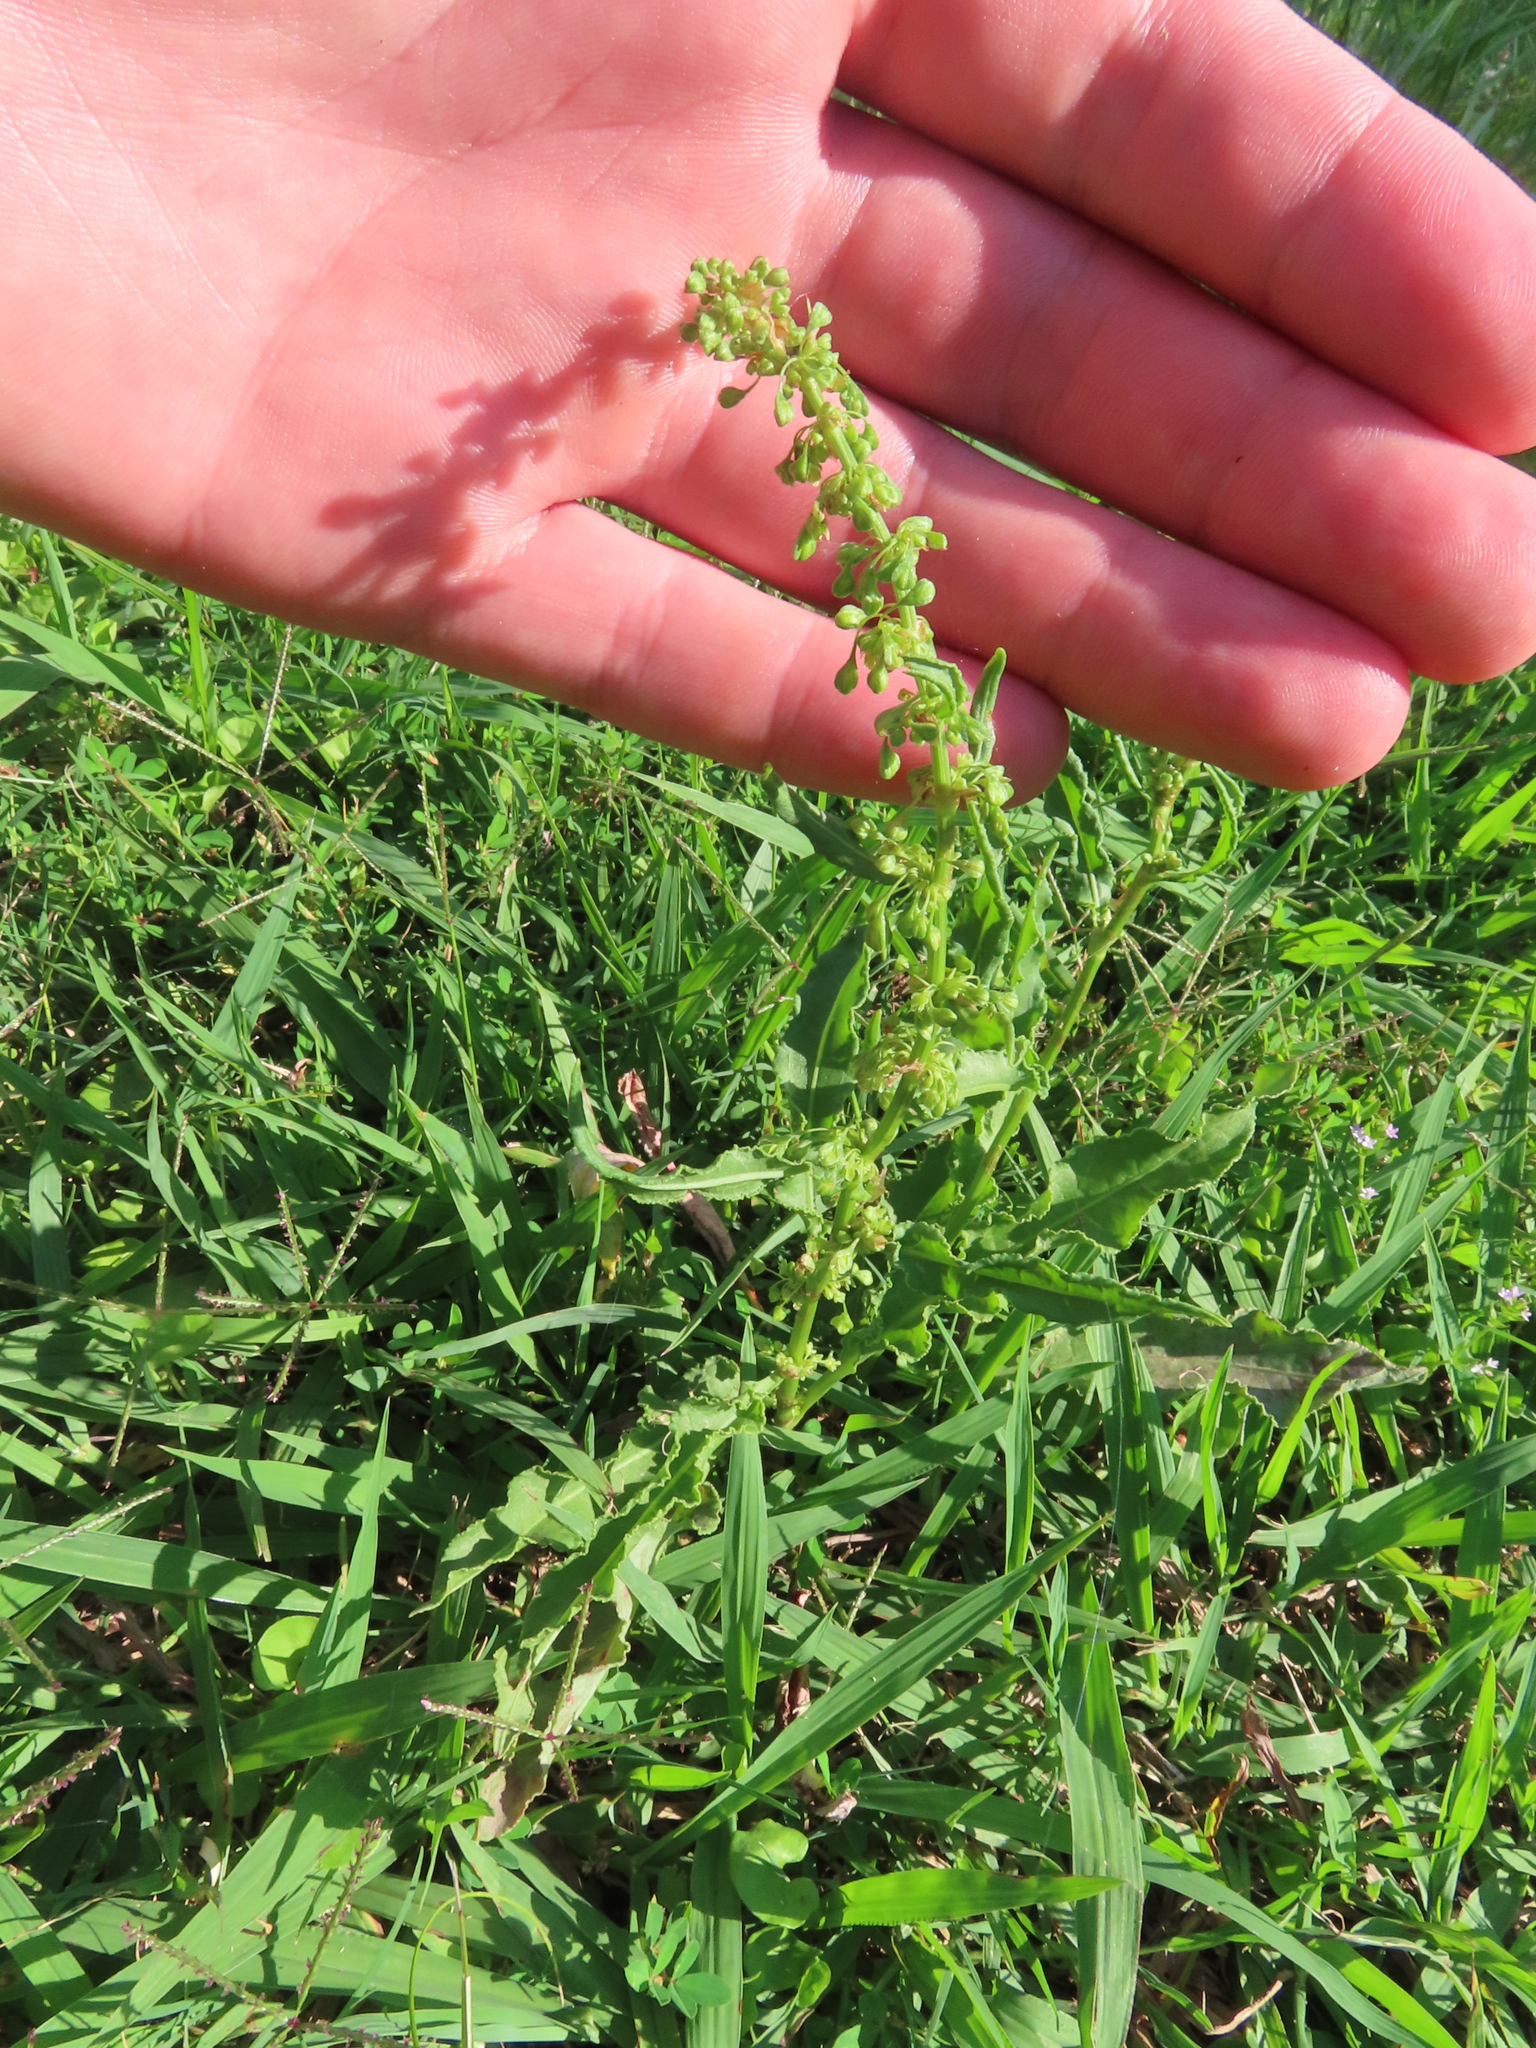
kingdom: Plantae
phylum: Tracheophyta
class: Magnoliopsida
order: Caryophyllales
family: Polygonaceae
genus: Rumex
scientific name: Rumex crispus
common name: Curled dock
